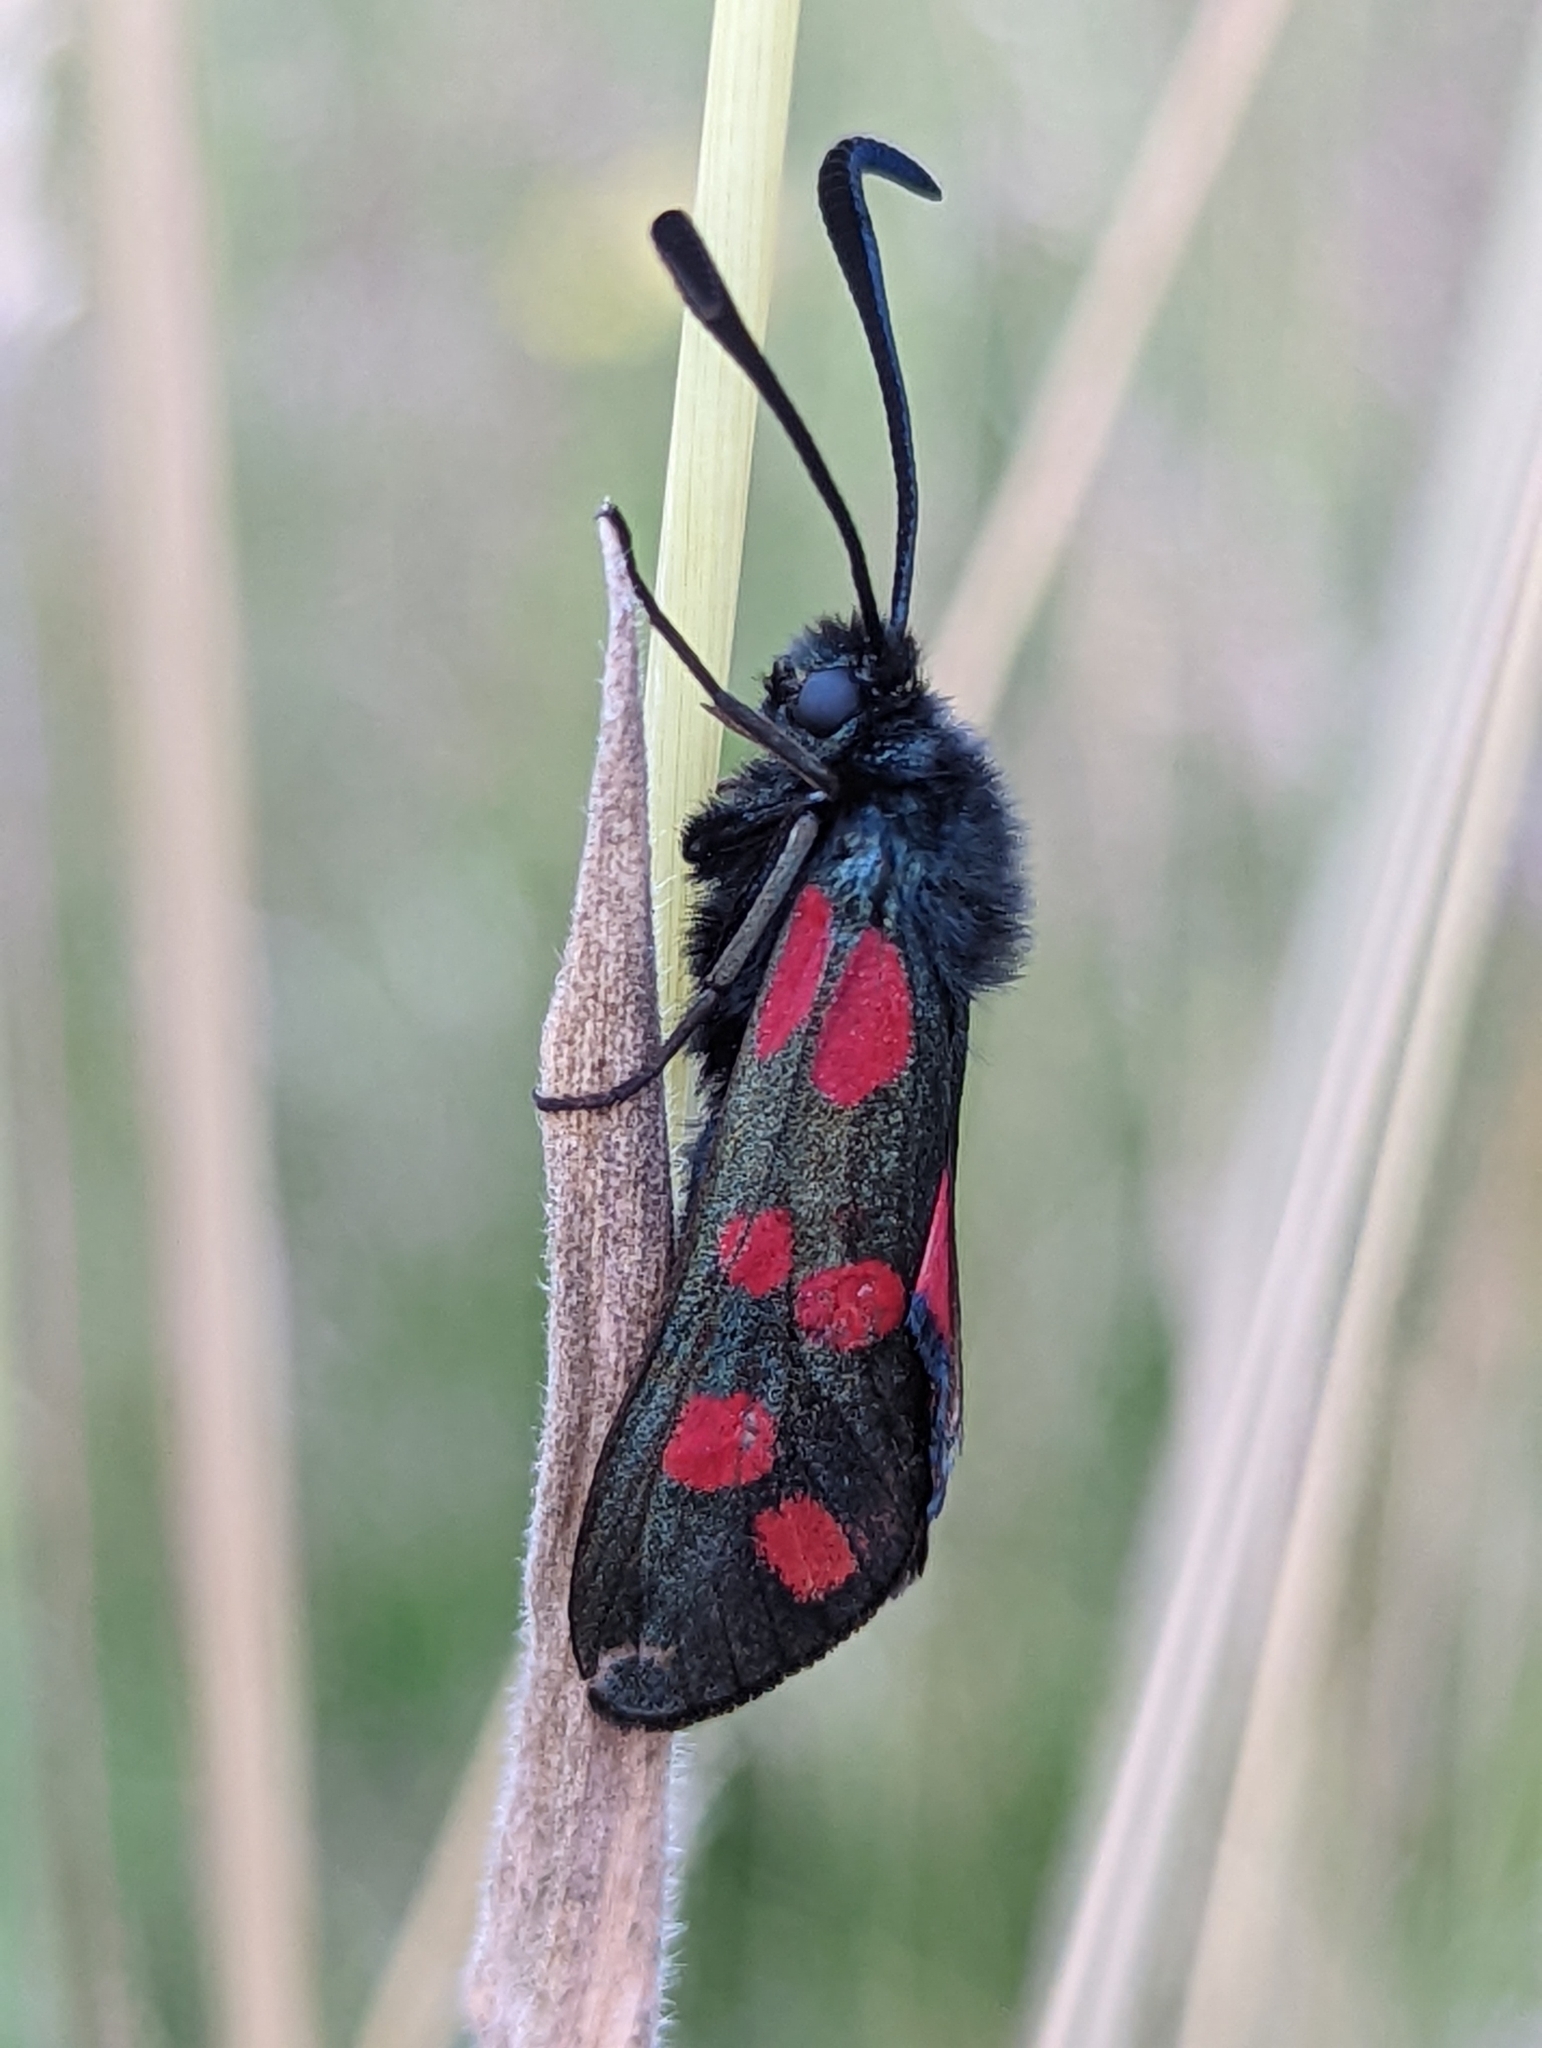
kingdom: Animalia
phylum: Arthropoda
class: Insecta
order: Lepidoptera
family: Zygaenidae
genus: Zygaena
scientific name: Zygaena filipendulae
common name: Six-spot burnet
